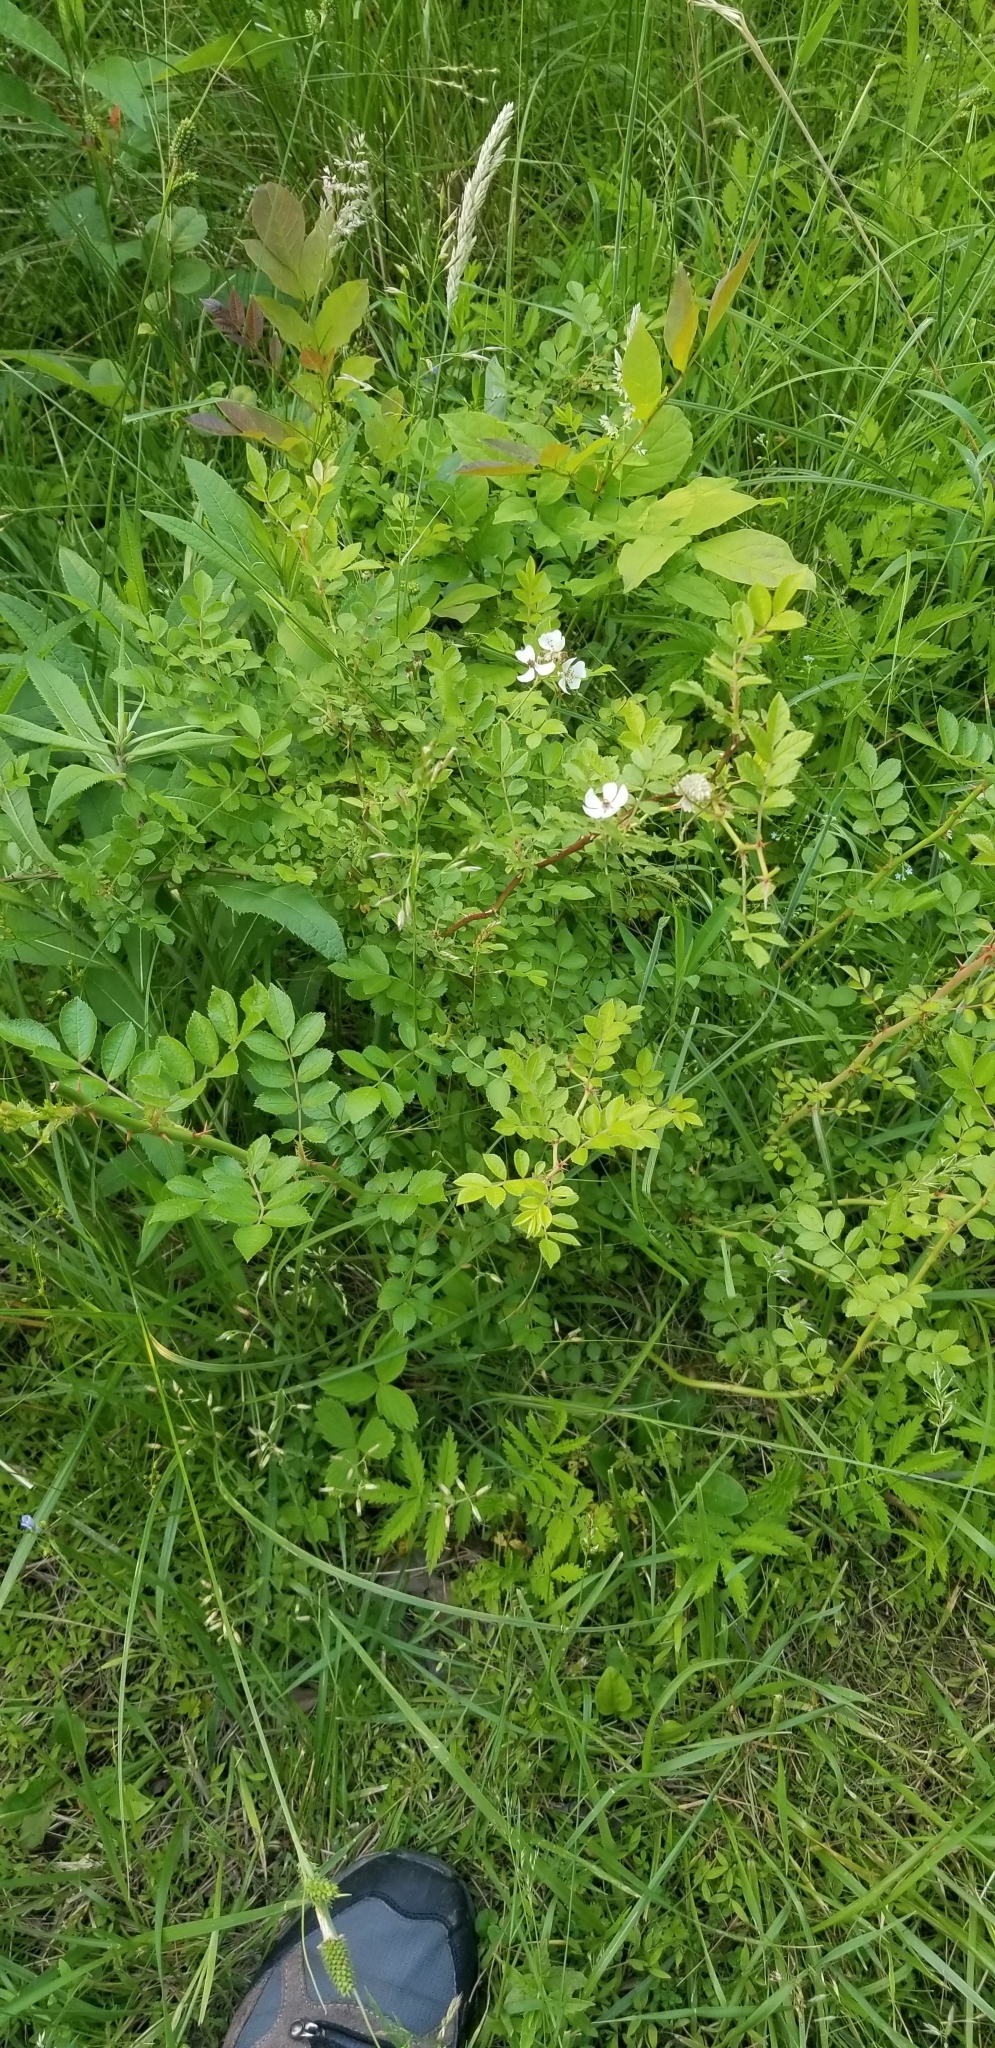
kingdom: Plantae
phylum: Tracheophyta
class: Magnoliopsida
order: Rosales
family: Rosaceae
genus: Rosa
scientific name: Rosa multiflora
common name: Multiflora rose
